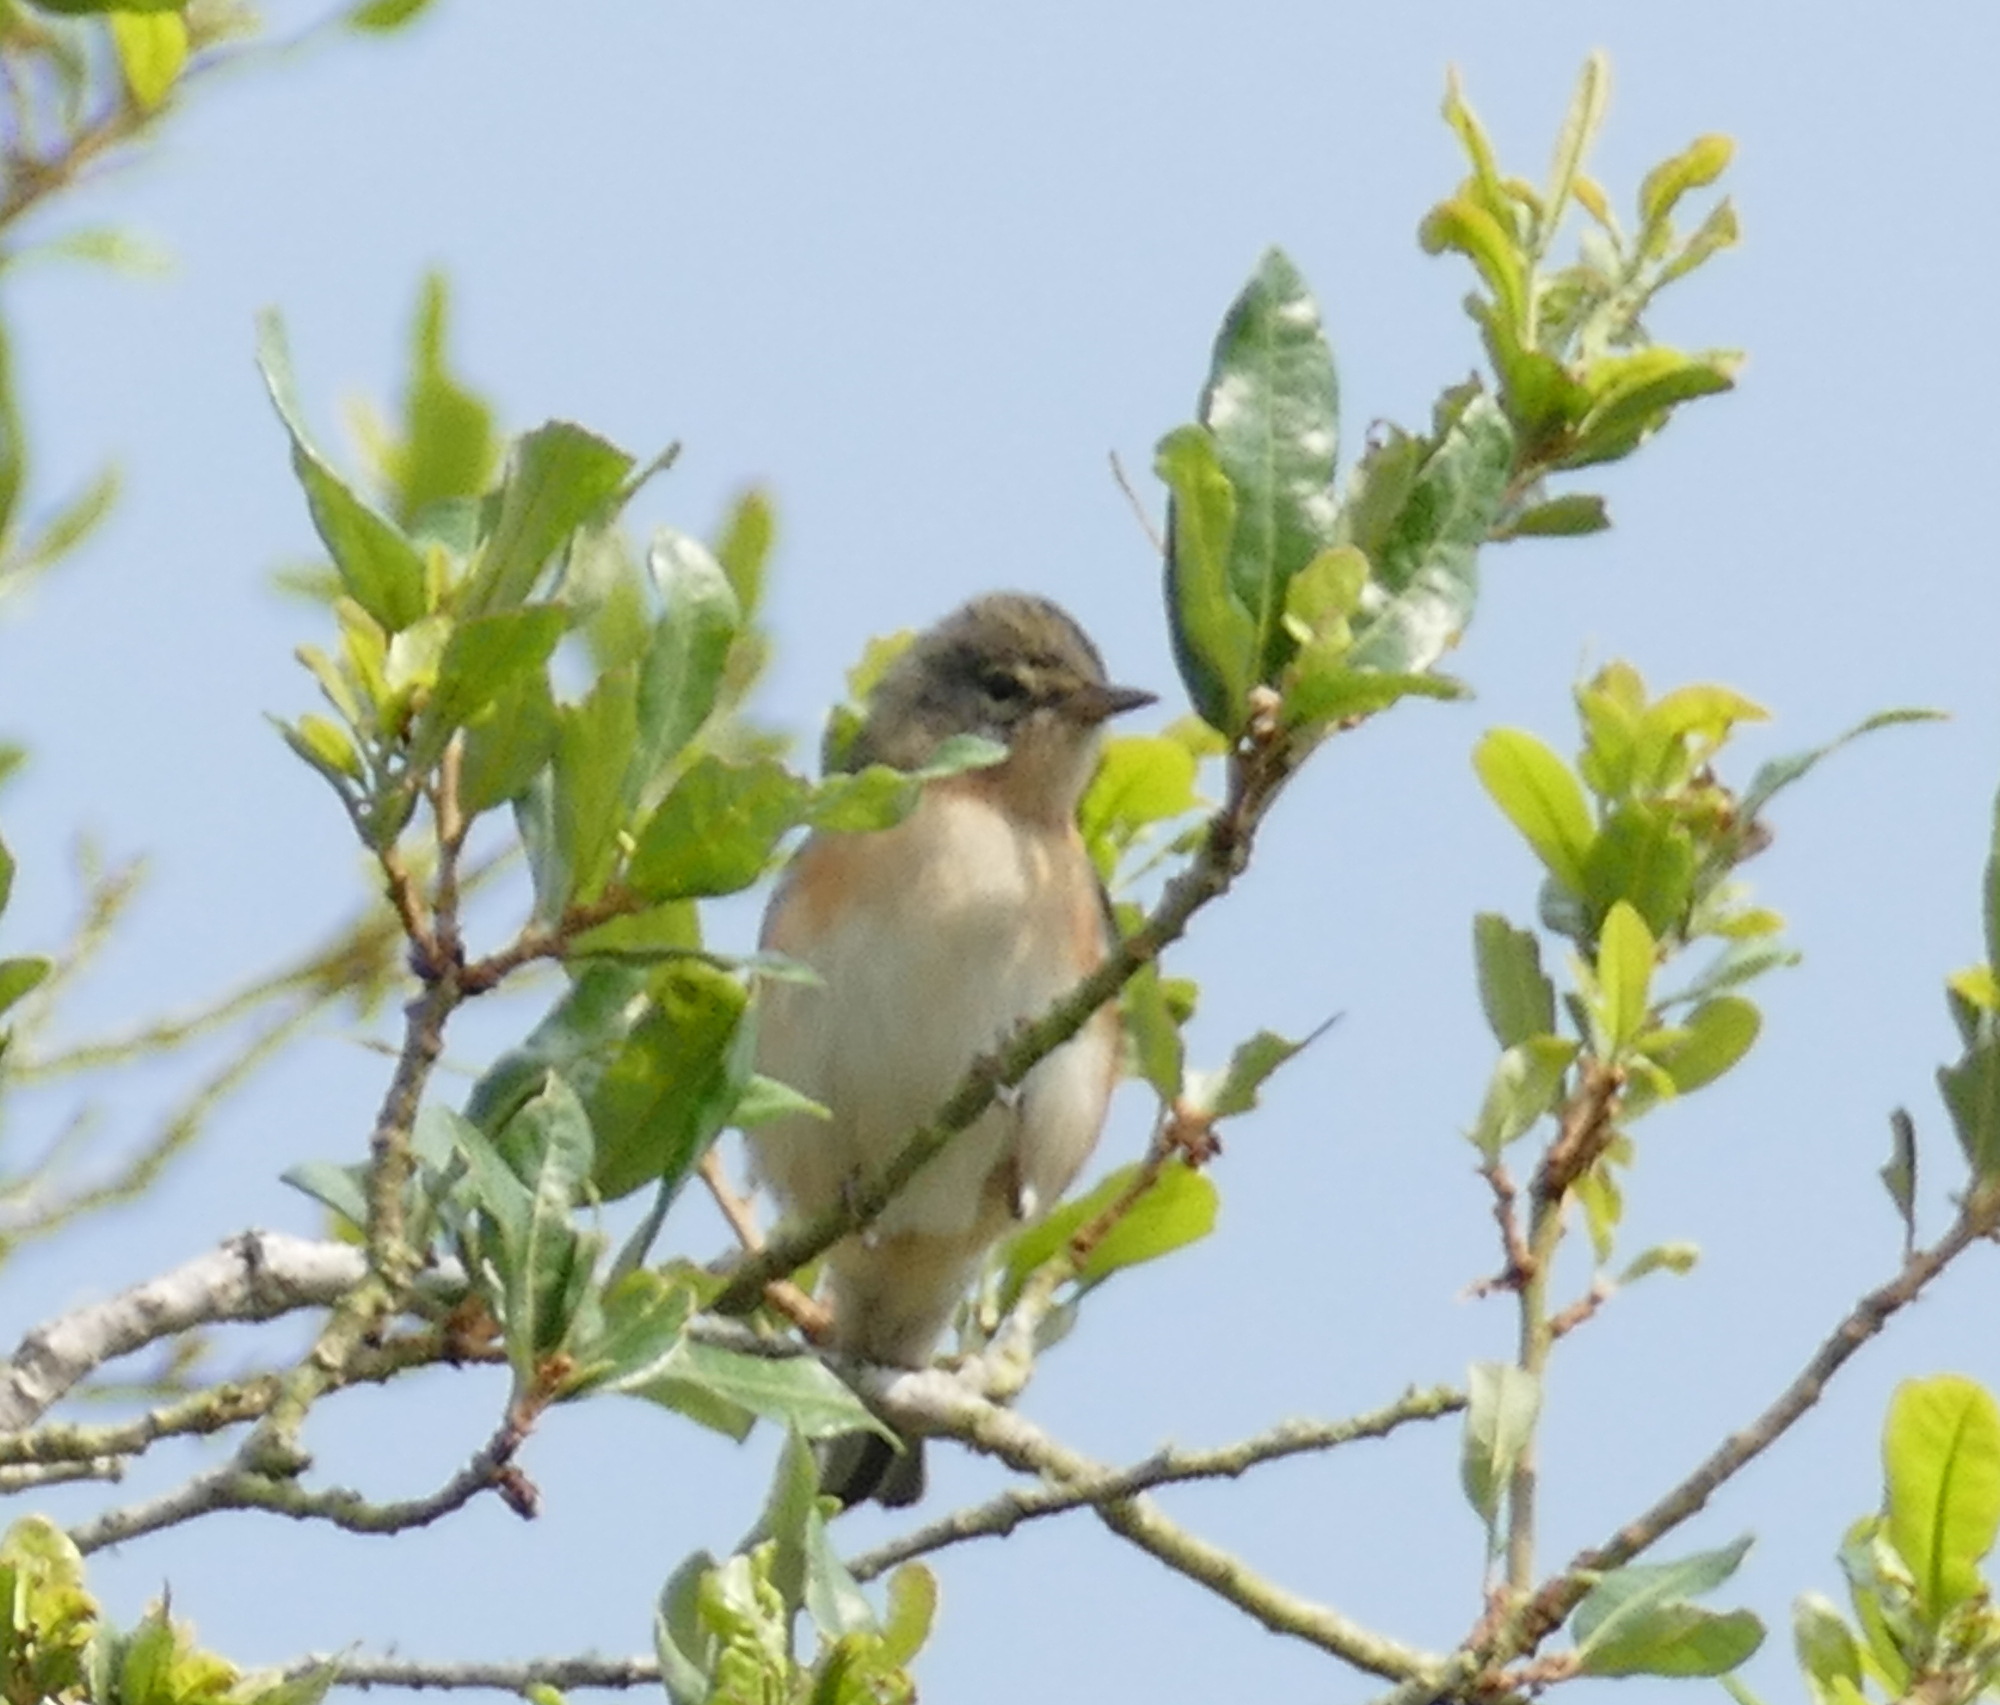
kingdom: Animalia
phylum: Chordata
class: Aves
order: Passeriformes
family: Parulidae
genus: Setophaga
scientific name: Setophaga castanea
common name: Bay-breasted warbler
